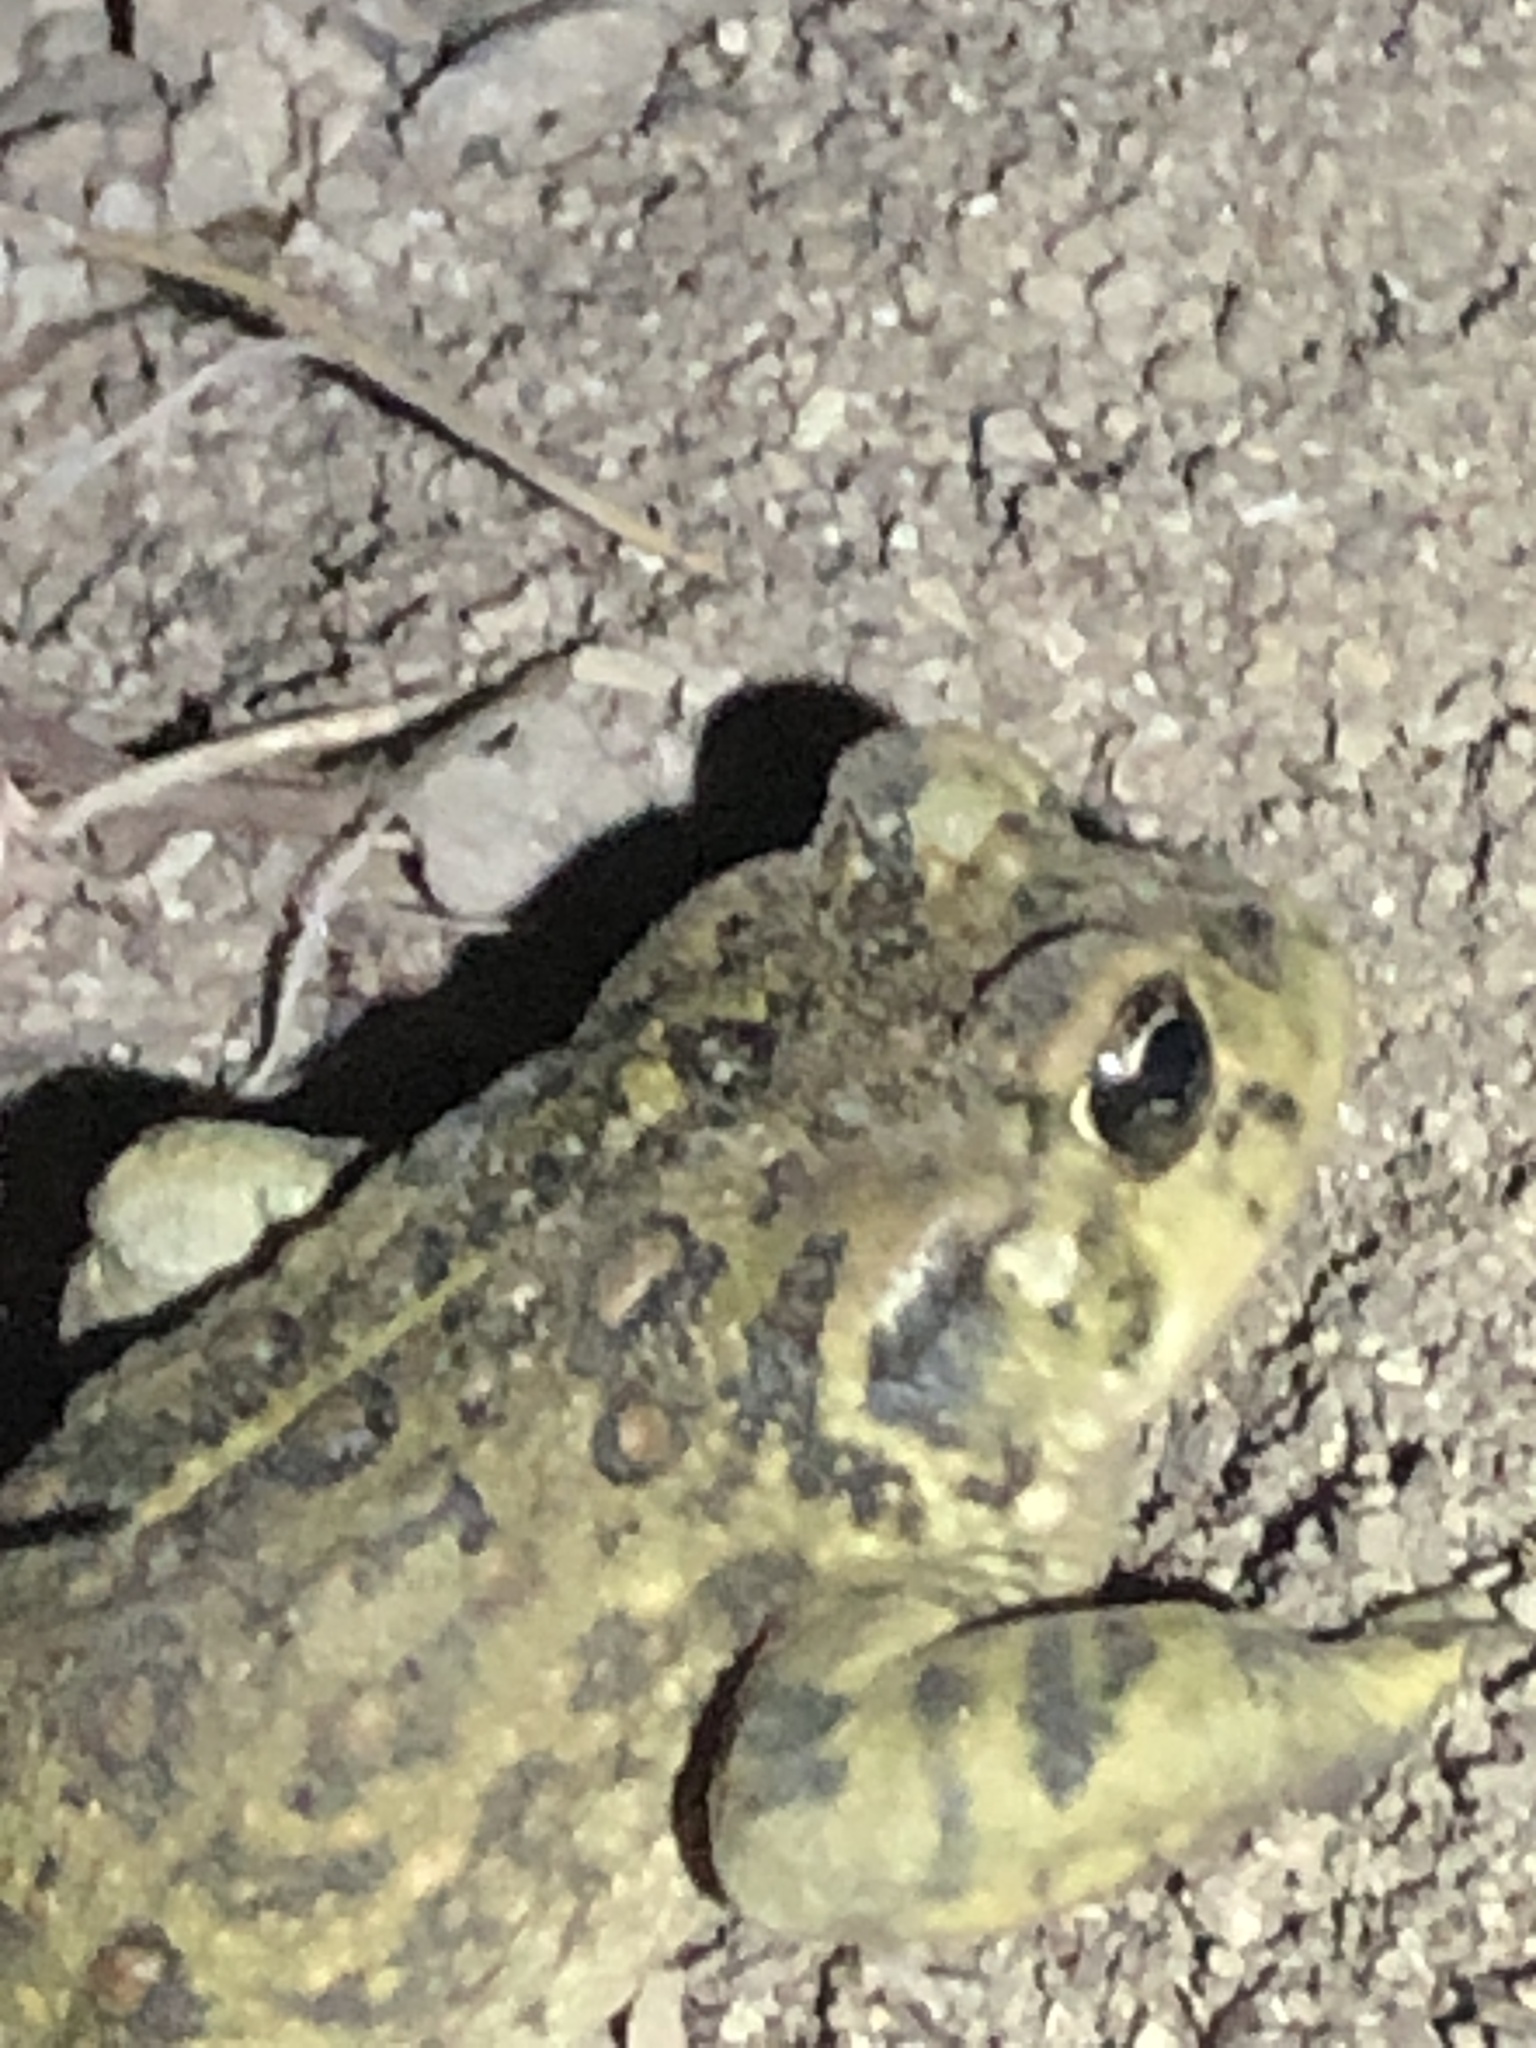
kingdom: Animalia
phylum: Chordata
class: Amphibia
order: Anura
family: Bufonidae
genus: Anaxyrus
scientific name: Anaxyrus boreas
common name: Western toad
